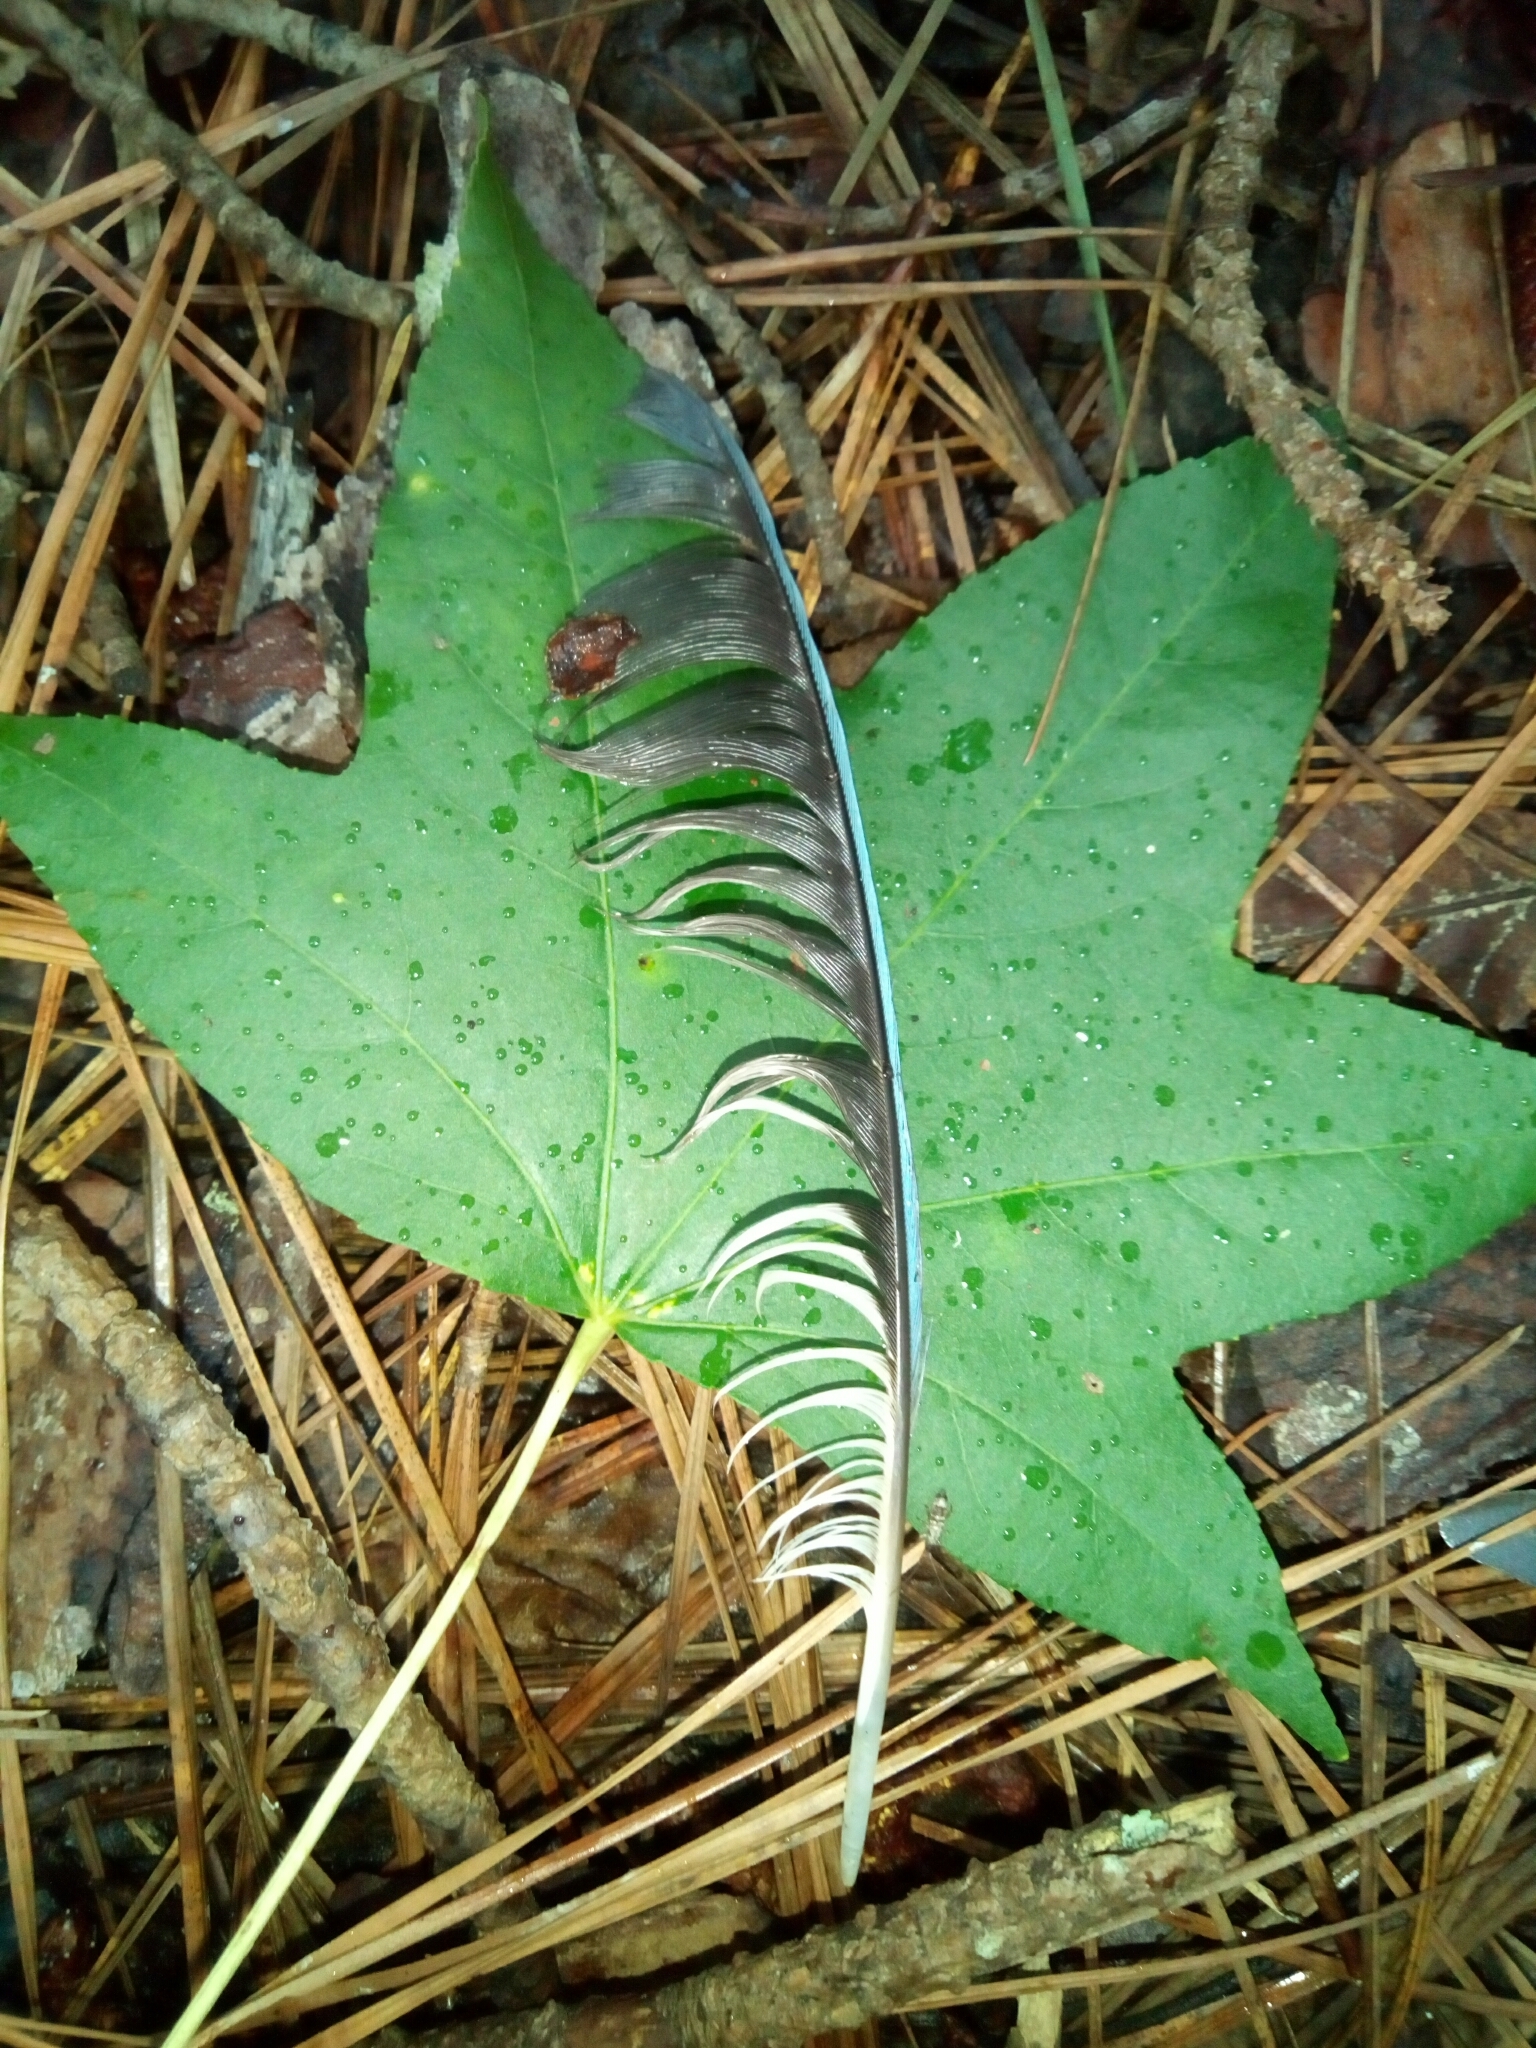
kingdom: Animalia
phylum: Chordata
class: Aves
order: Passeriformes
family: Corvidae
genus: Cyanocitta
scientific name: Cyanocitta cristata
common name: Blue jay
